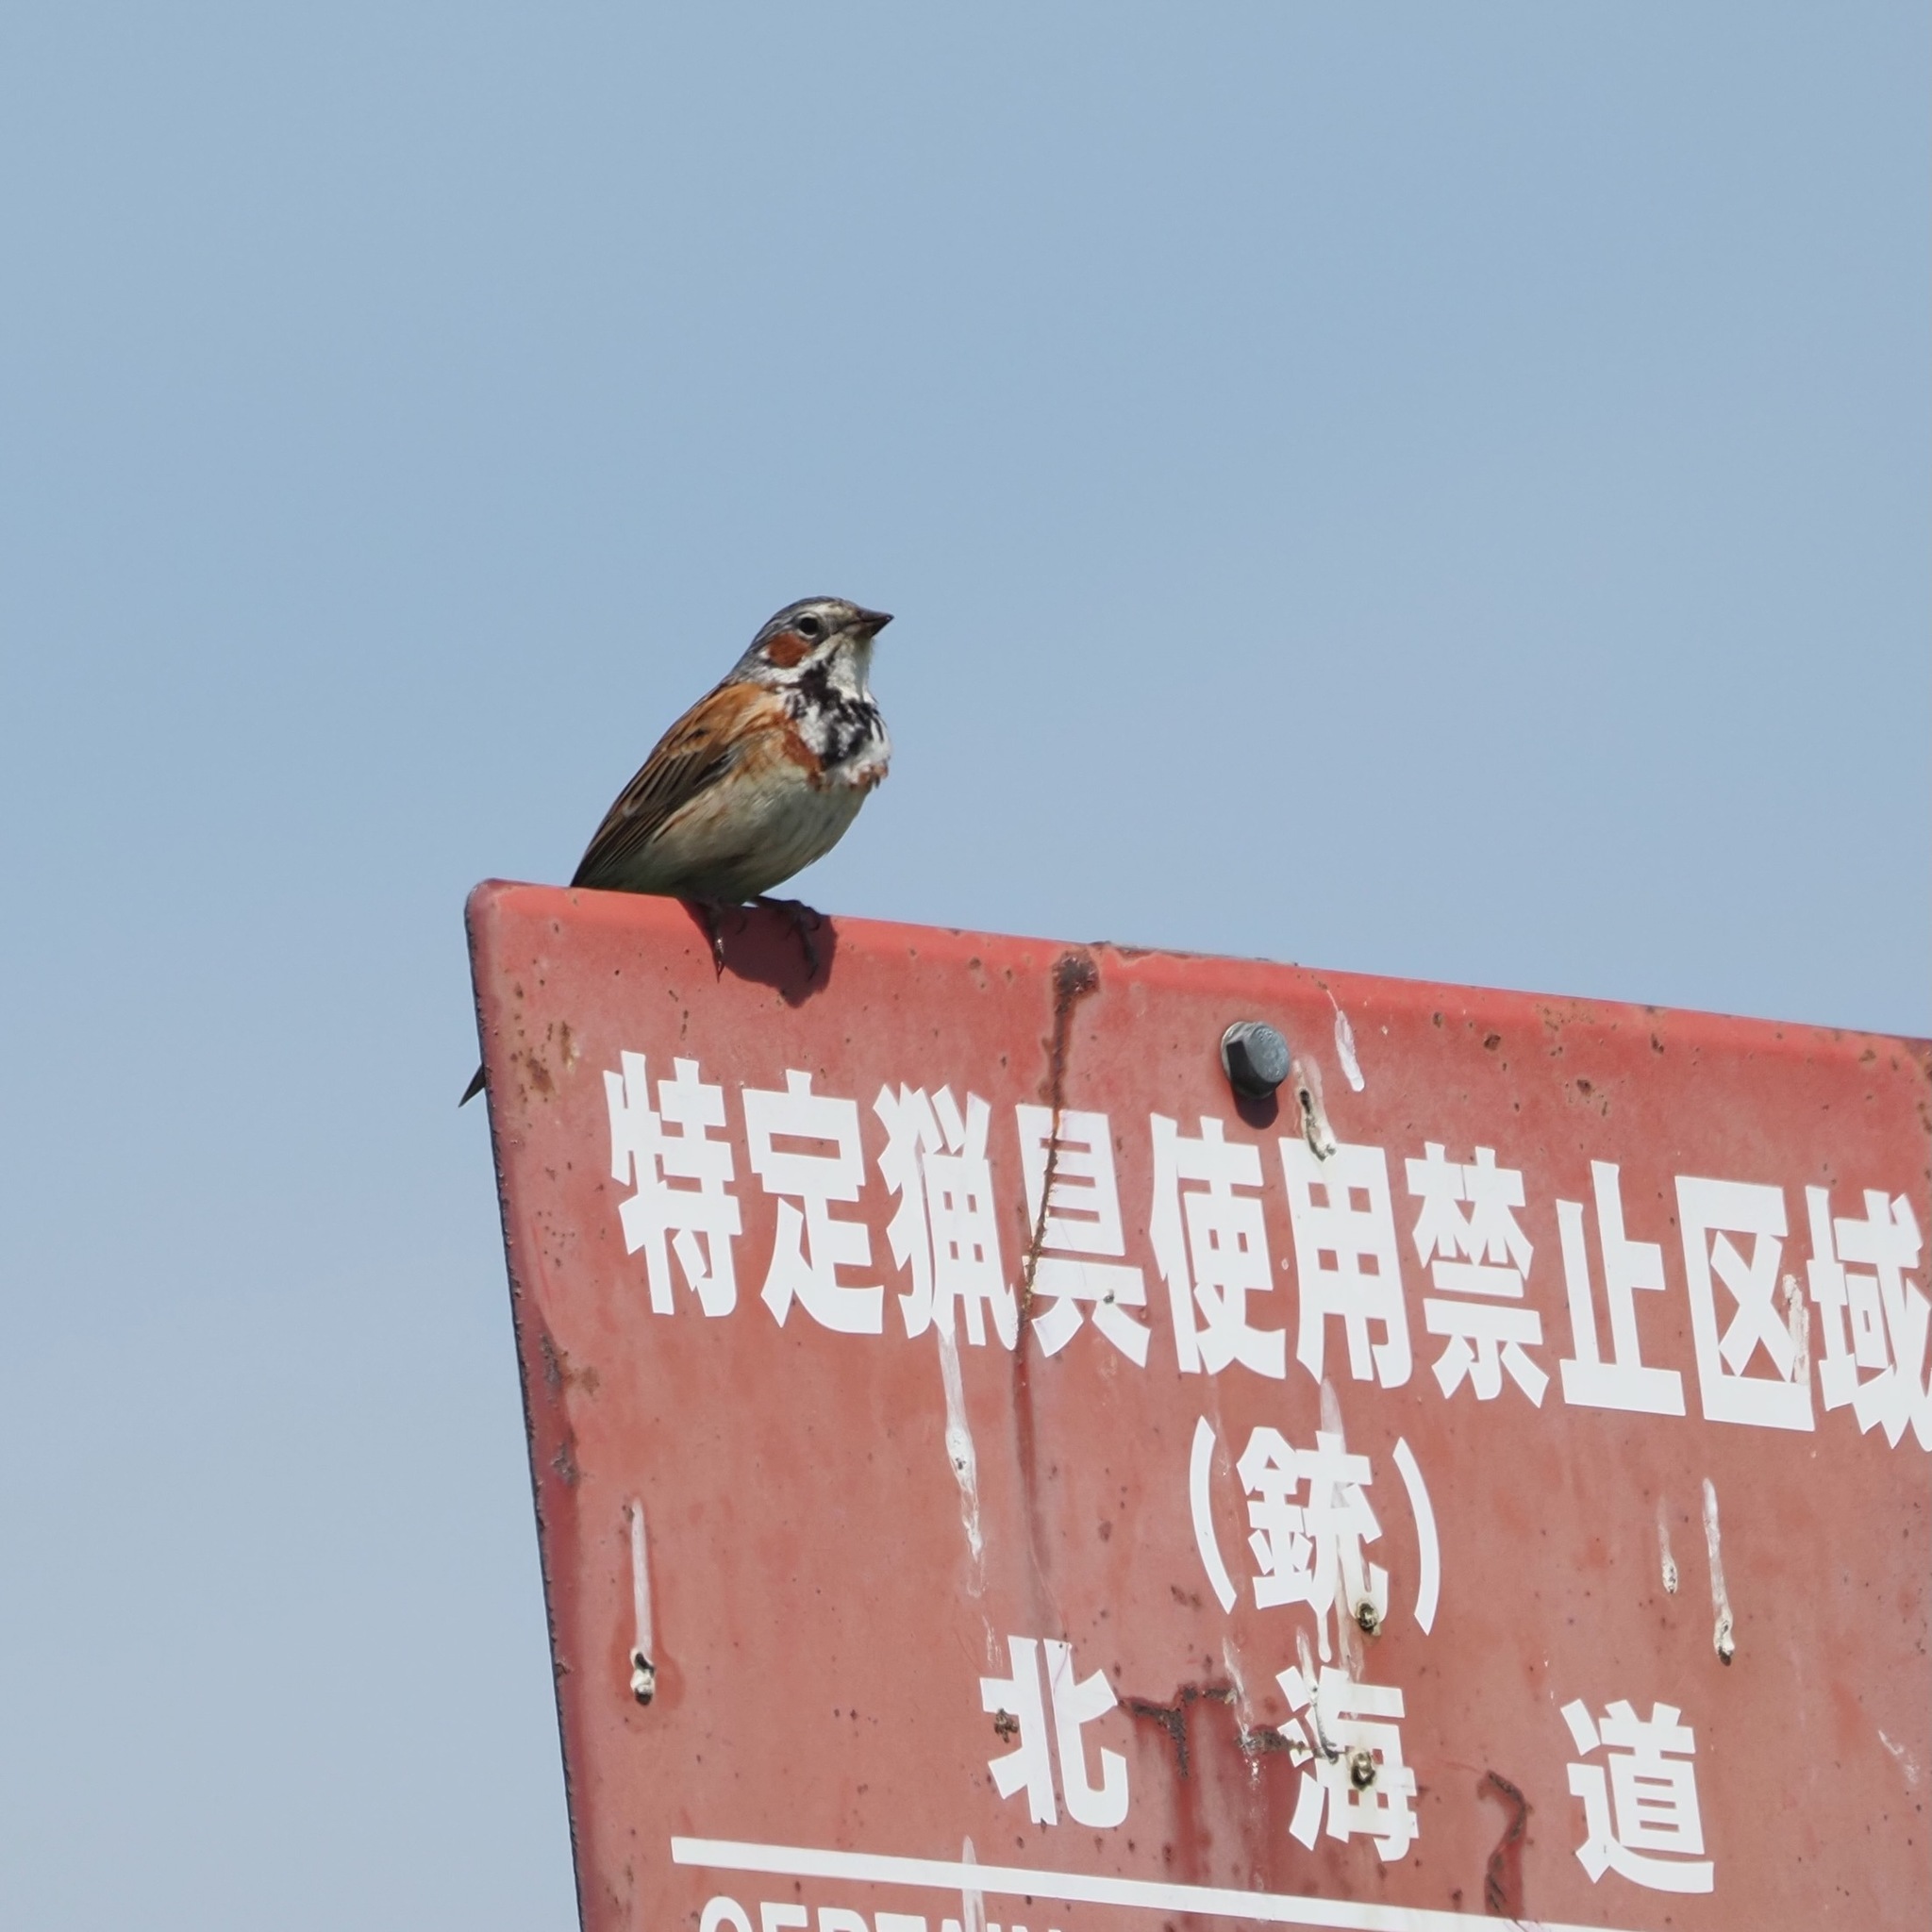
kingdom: Animalia
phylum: Chordata
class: Aves
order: Passeriformes
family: Emberizidae
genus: Emberiza
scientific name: Emberiza fucata
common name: Chestnut-eared bunting
